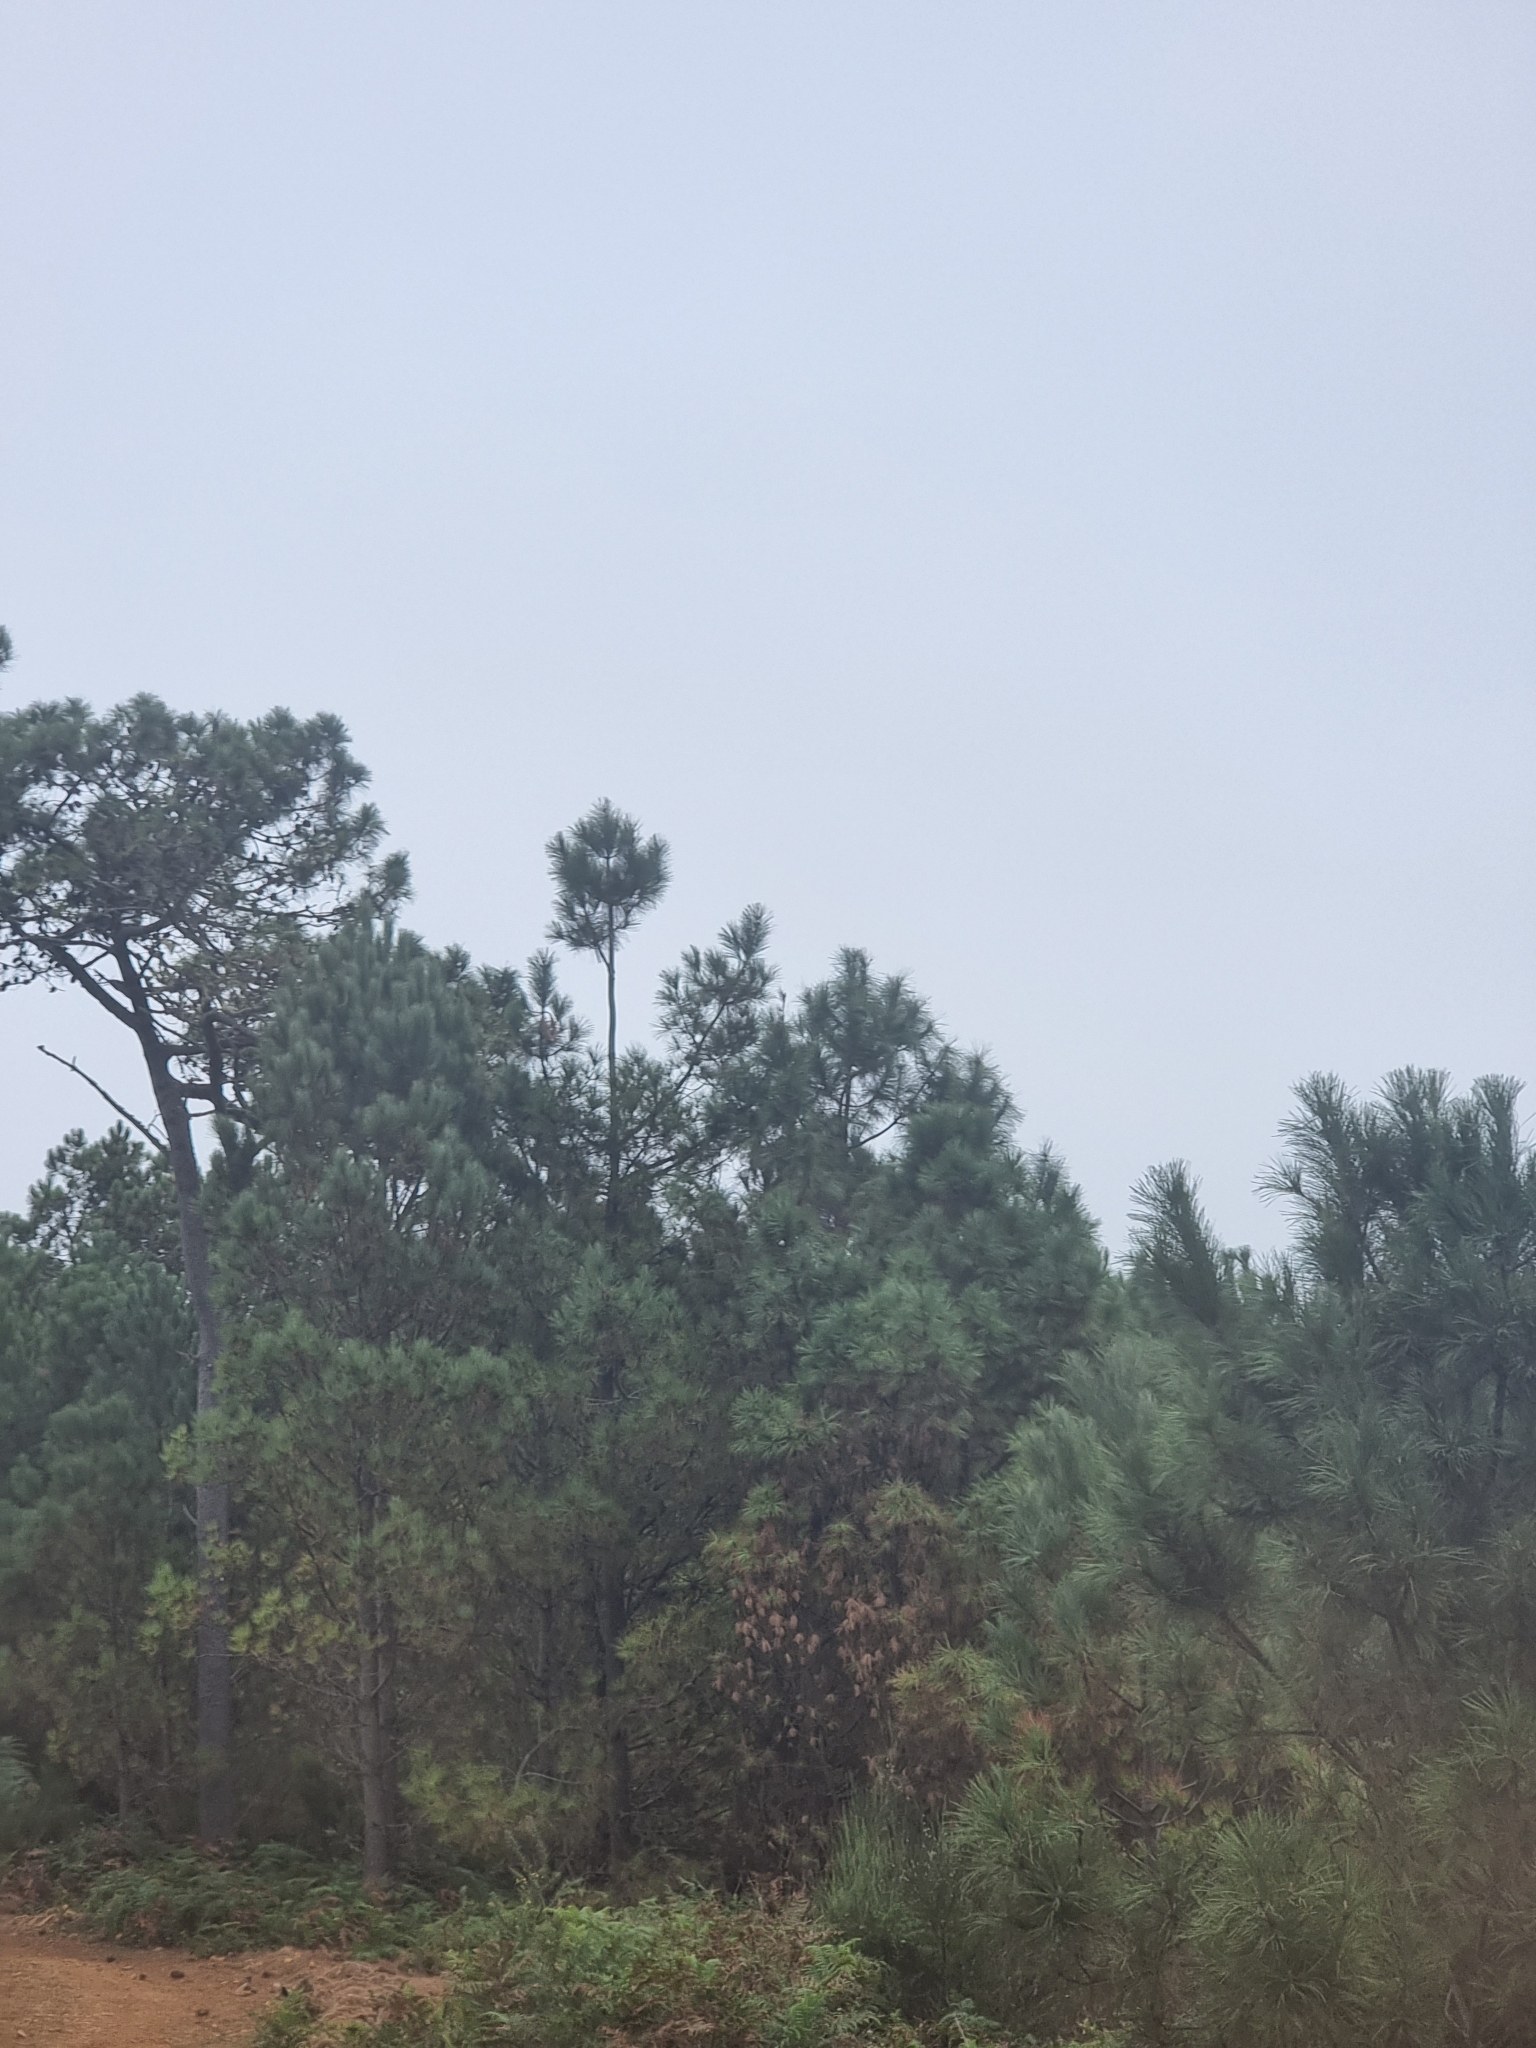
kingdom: Plantae
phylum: Tracheophyta
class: Pinopsida
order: Pinales
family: Pinaceae
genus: Pinus
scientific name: Pinus pinaster
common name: Maritime pine
